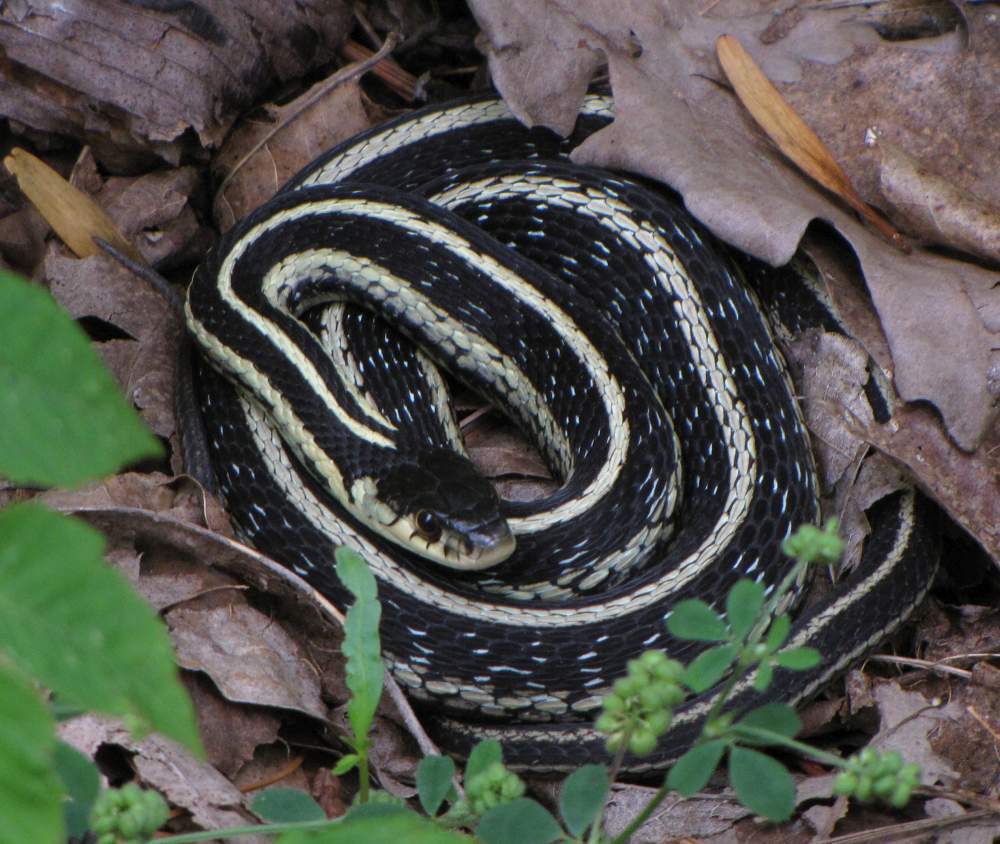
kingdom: Animalia
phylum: Chordata
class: Squamata
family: Colubridae
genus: Thamnophis
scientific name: Thamnophis sirtalis
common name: Common garter snake
